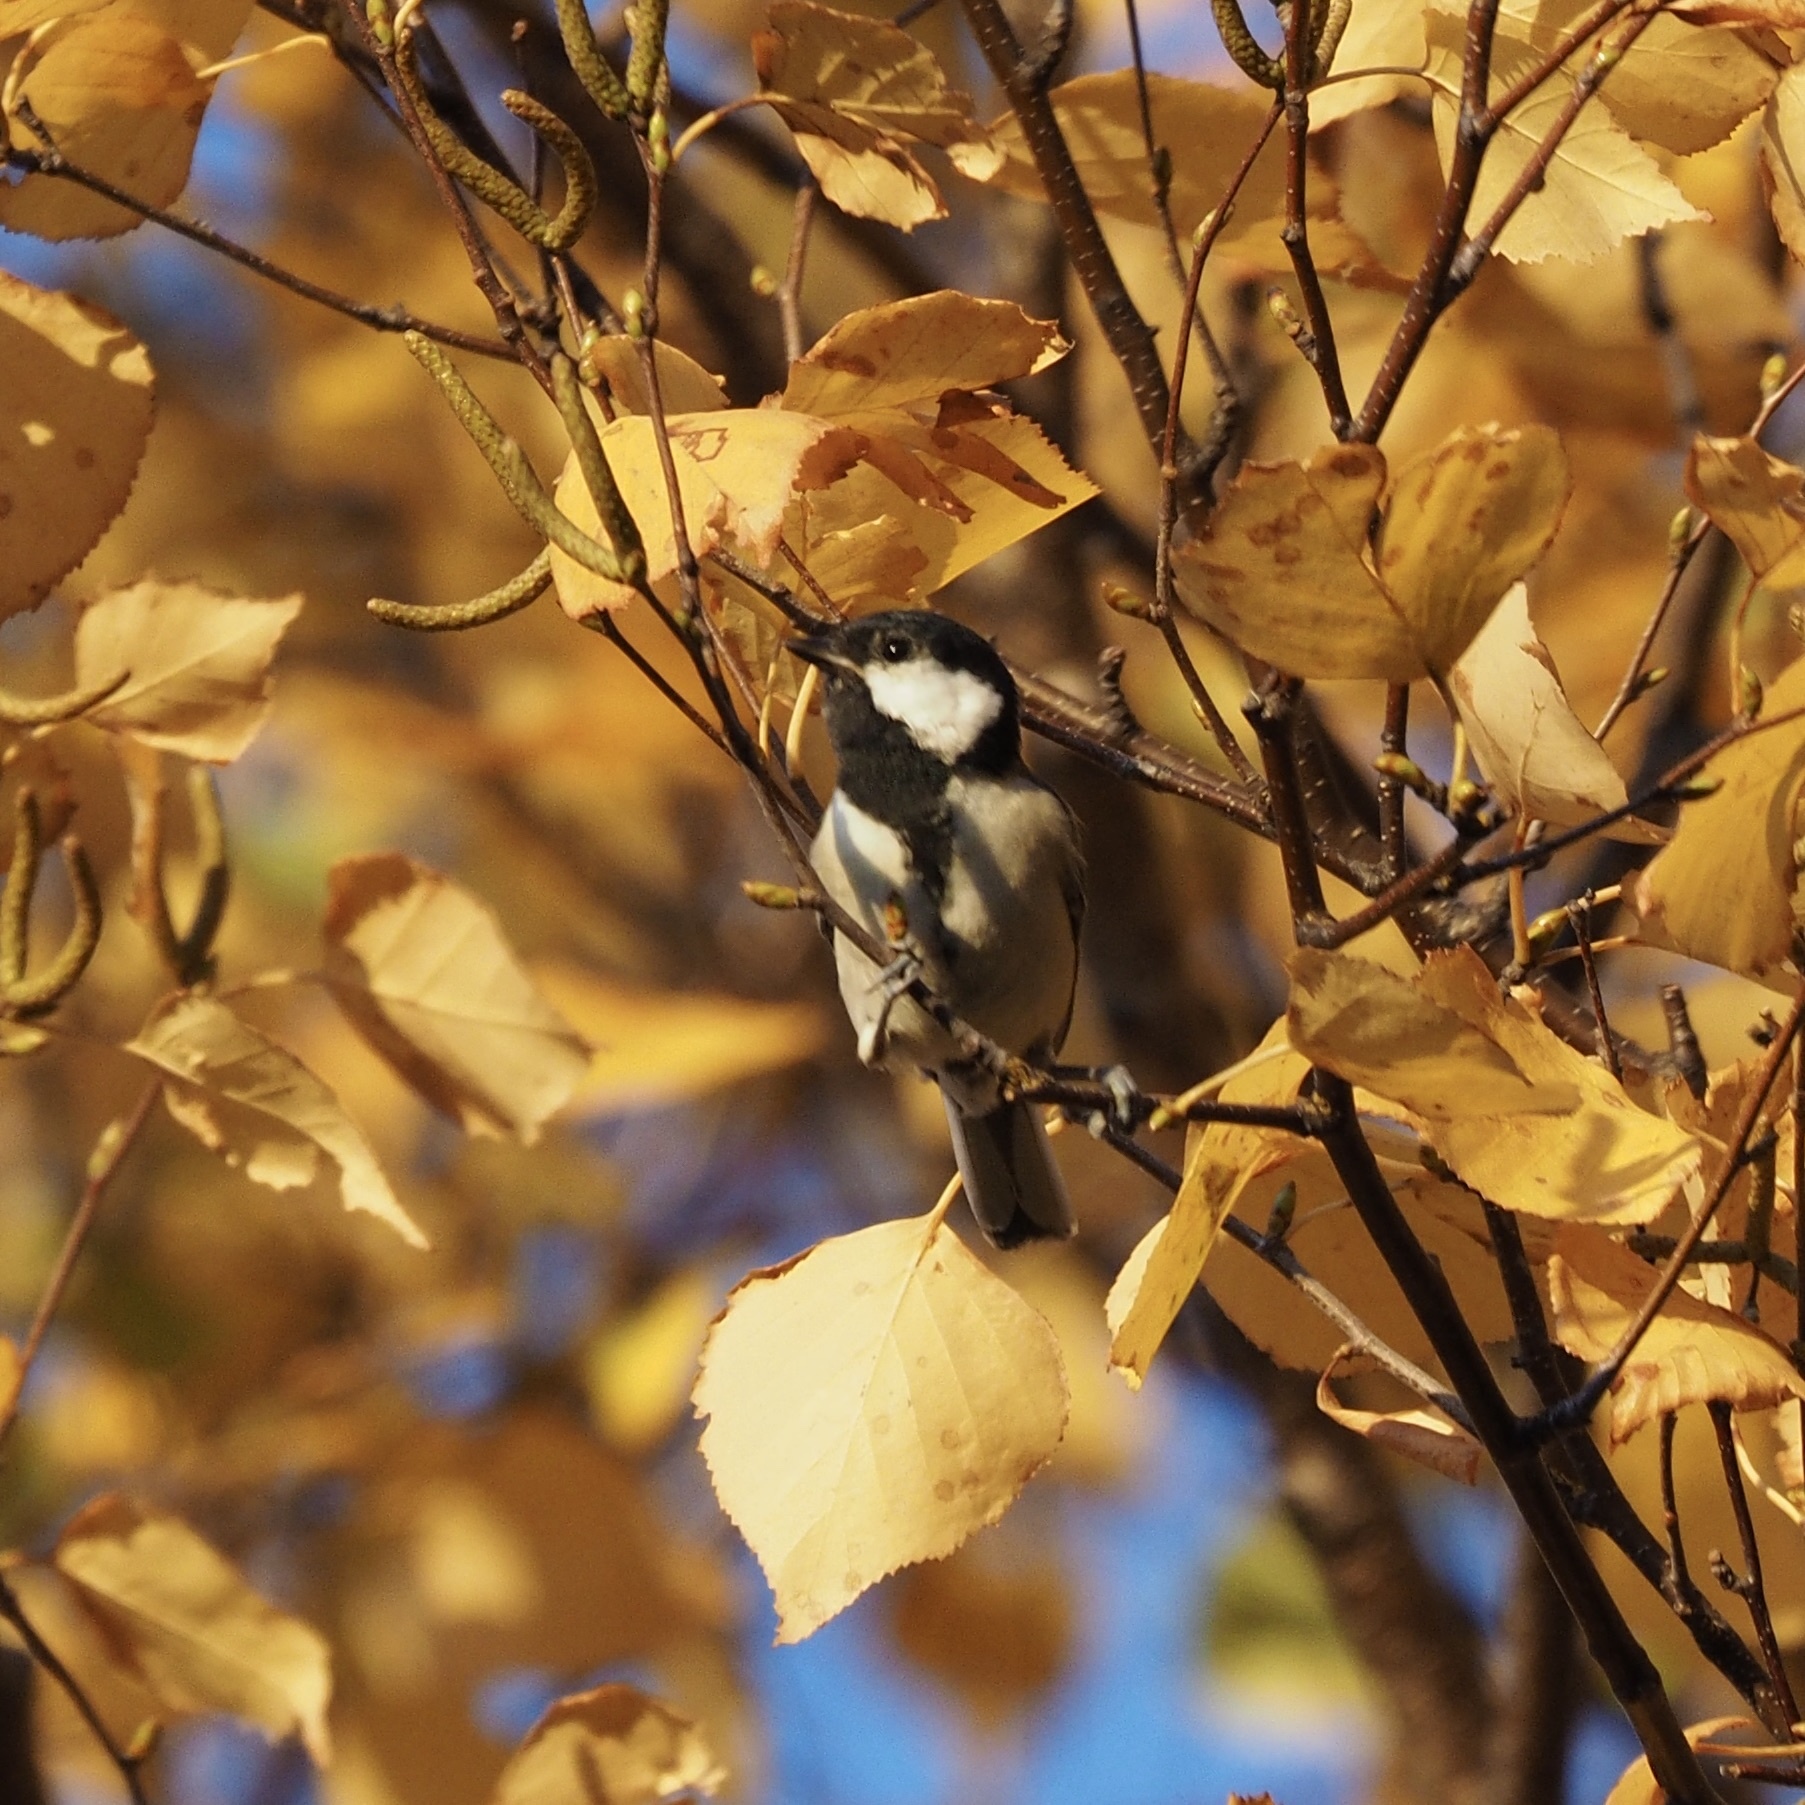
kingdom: Animalia
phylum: Chordata
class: Aves
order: Passeriformes
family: Paridae
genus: Parus
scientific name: Parus minor
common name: Japanese tit
